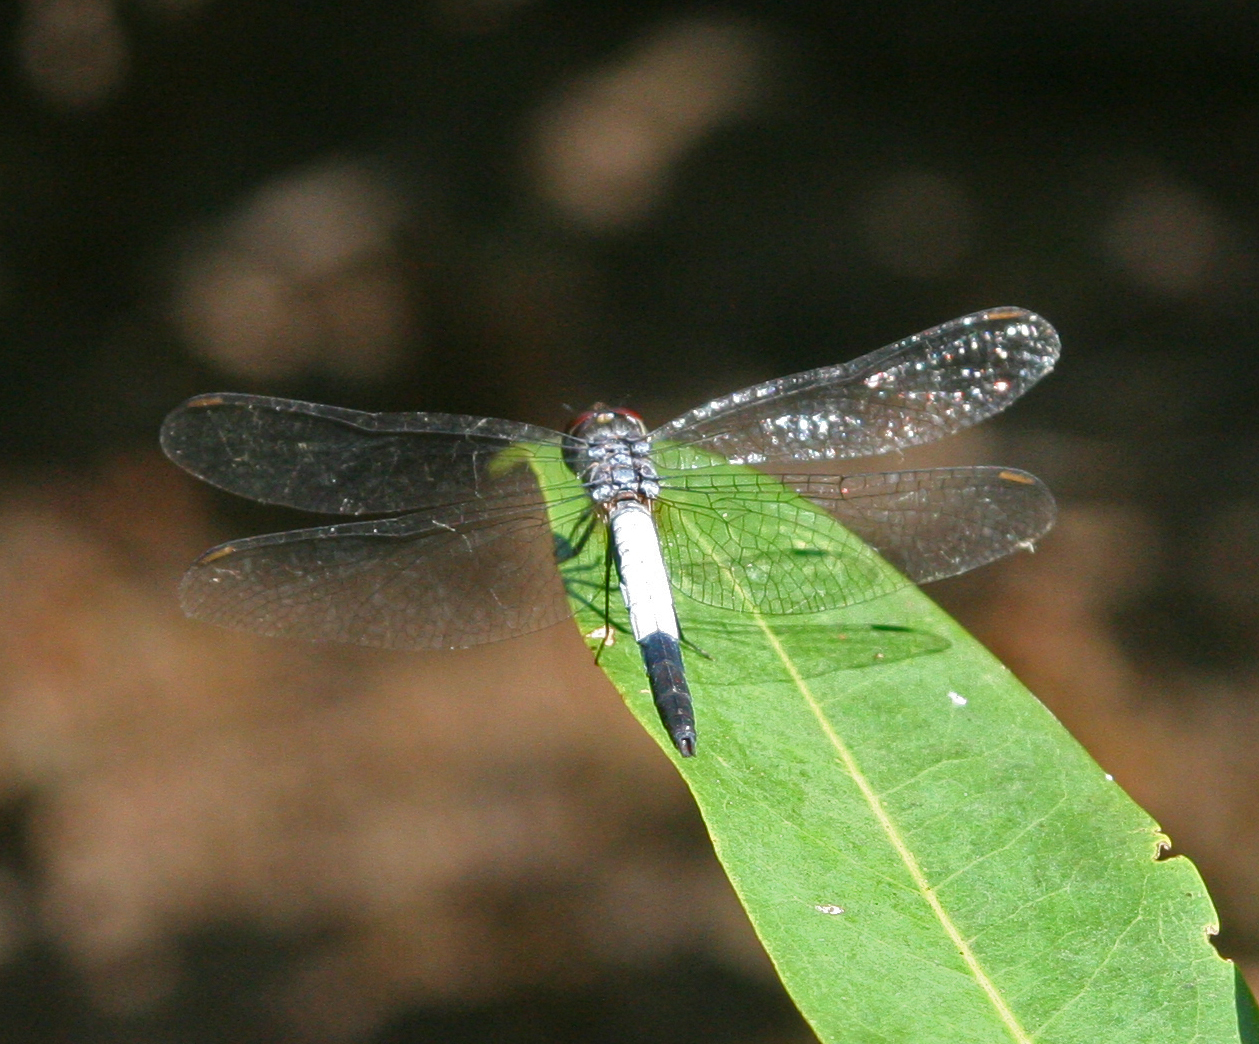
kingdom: Animalia
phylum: Arthropoda
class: Insecta
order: Odonata
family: Libellulidae
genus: Brachydiplax
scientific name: Brachydiplax farinosa
